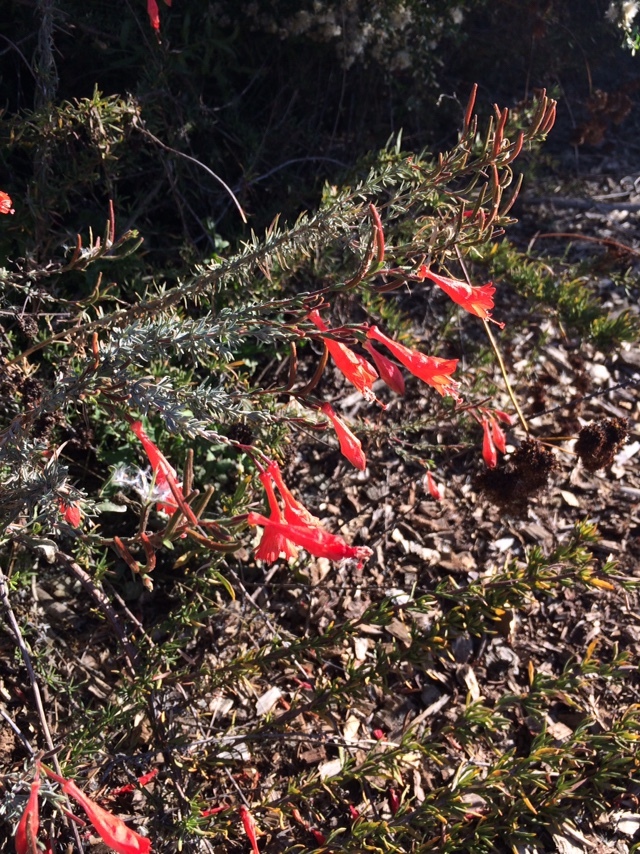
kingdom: Plantae
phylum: Tracheophyta
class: Magnoliopsida
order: Myrtales
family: Onagraceae
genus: Epilobium
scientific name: Epilobium canum
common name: California-fuchsia
